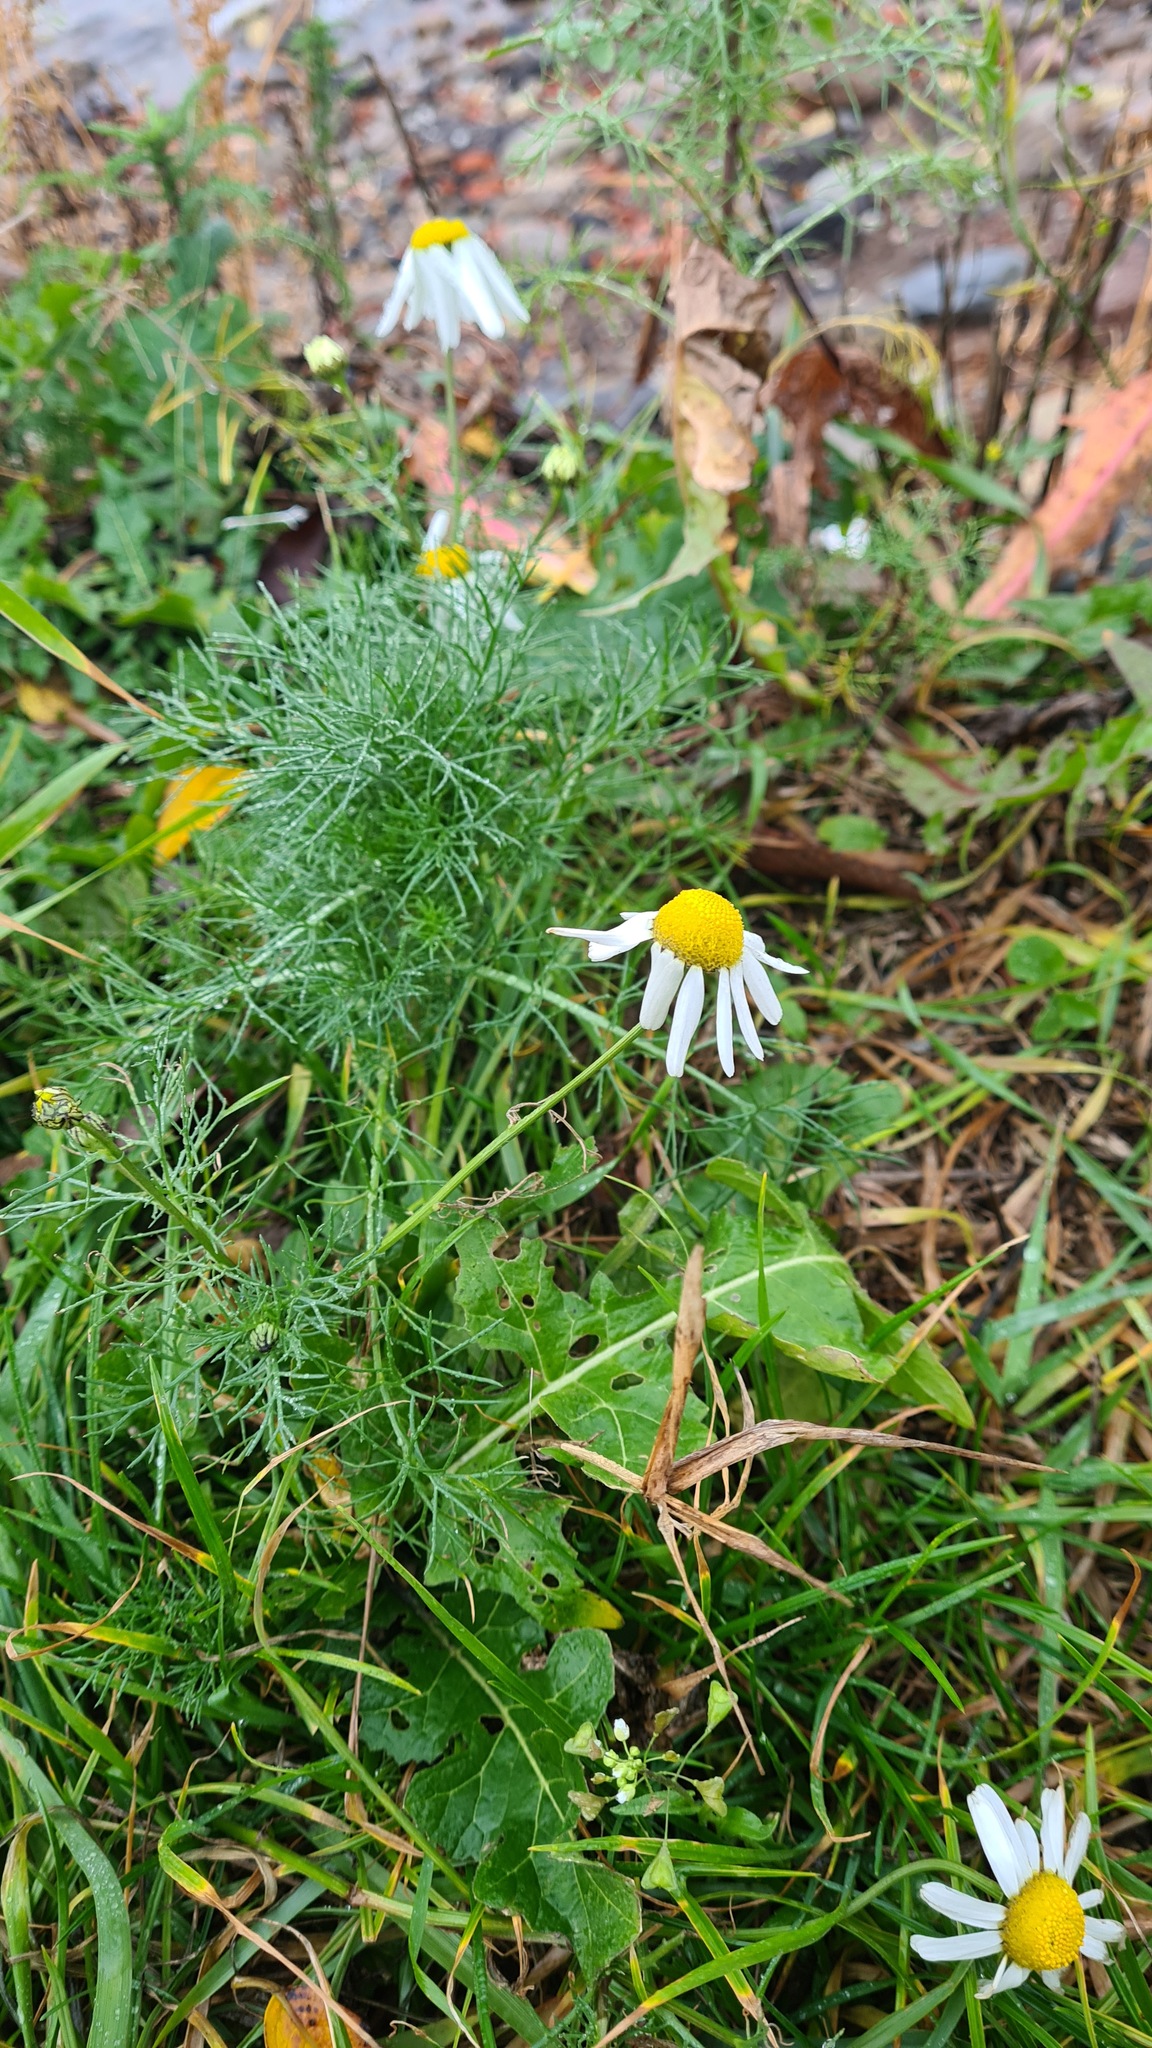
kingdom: Plantae
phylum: Tracheophyta
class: Magnoliopsida
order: Asterales
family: Asteraceae
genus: Tripleurospermum
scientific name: Tripleurospermum inodorum
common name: Scentless mayweed
